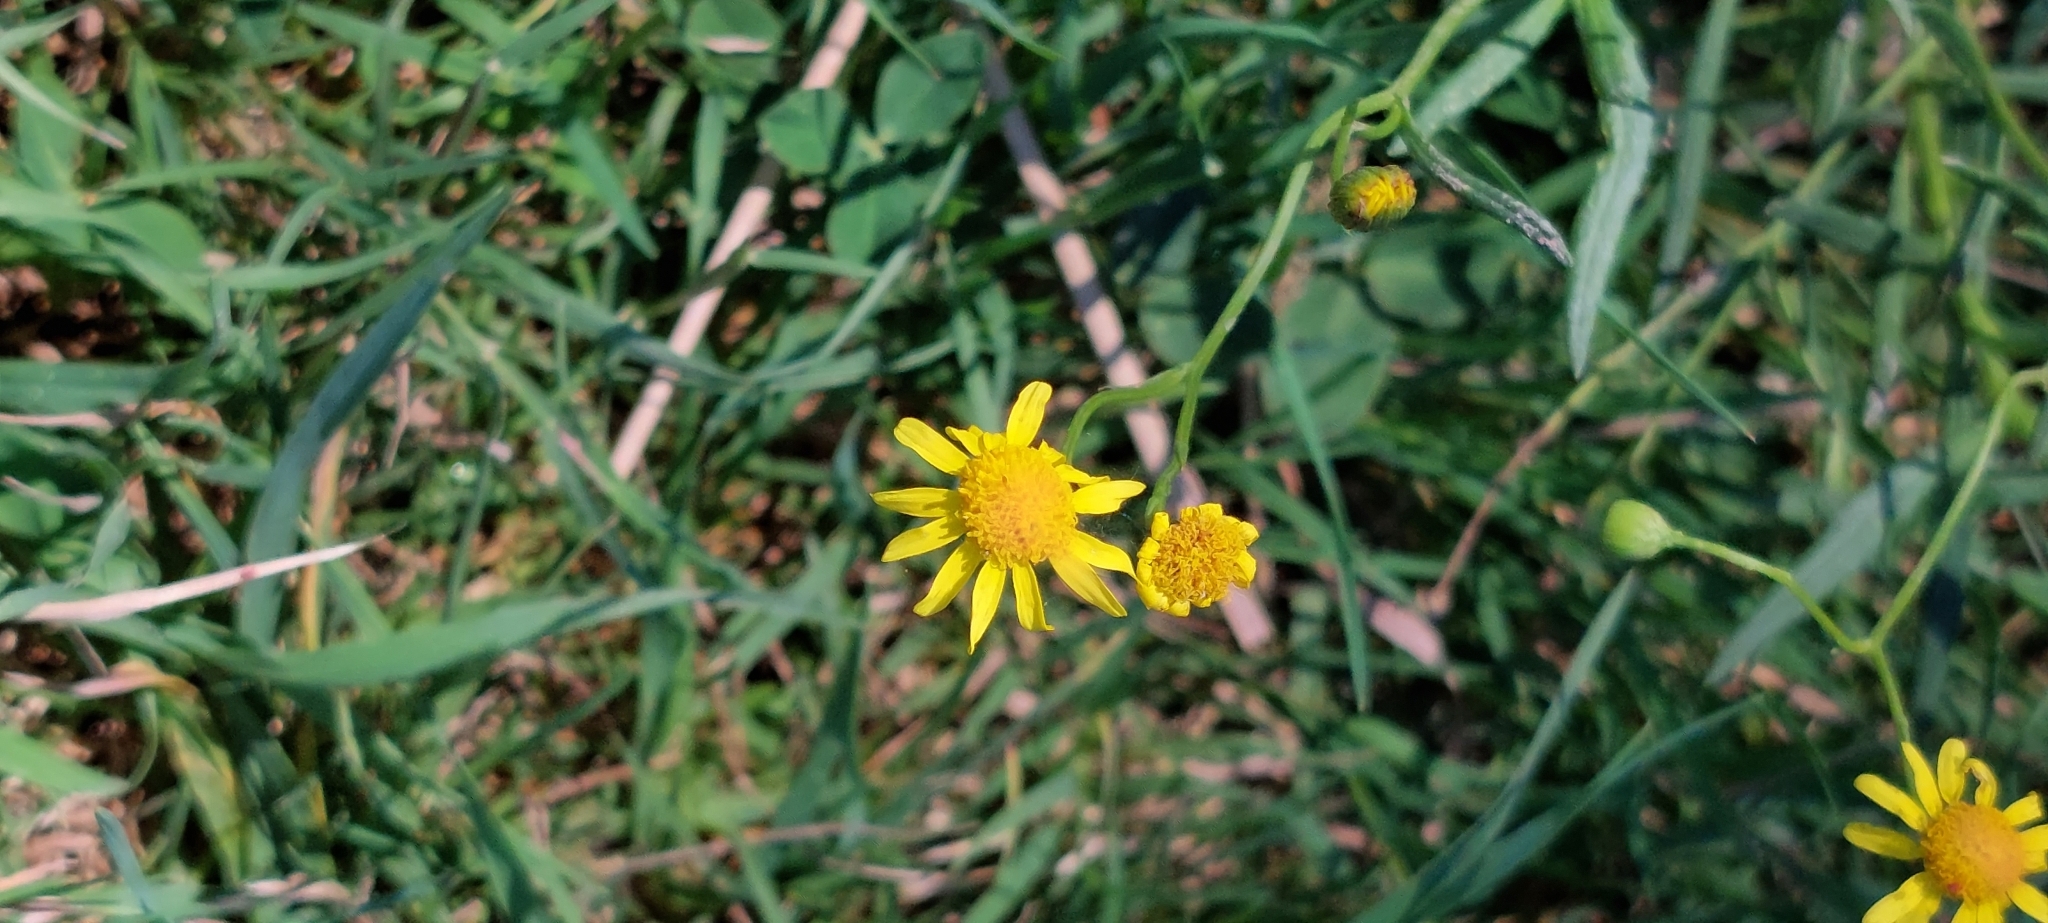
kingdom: Plantae
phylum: Tracheophyta
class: Magnoliopsida
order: Asterales
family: Asteraceae
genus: Senecio
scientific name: Senecio madagascariensis
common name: Madagascar ragwort
